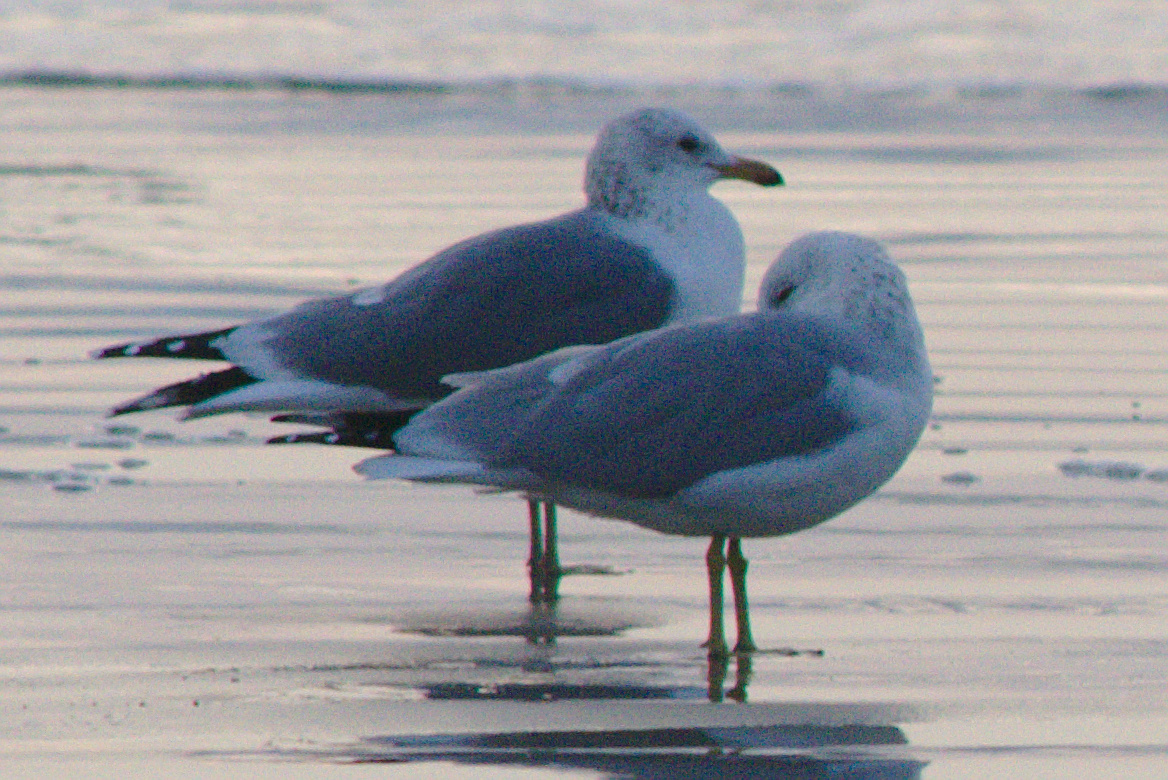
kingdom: Animalia
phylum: Chordata
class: Aves
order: Charadriiformes
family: Laridae
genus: Larus
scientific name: Larus californicus
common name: California gull
